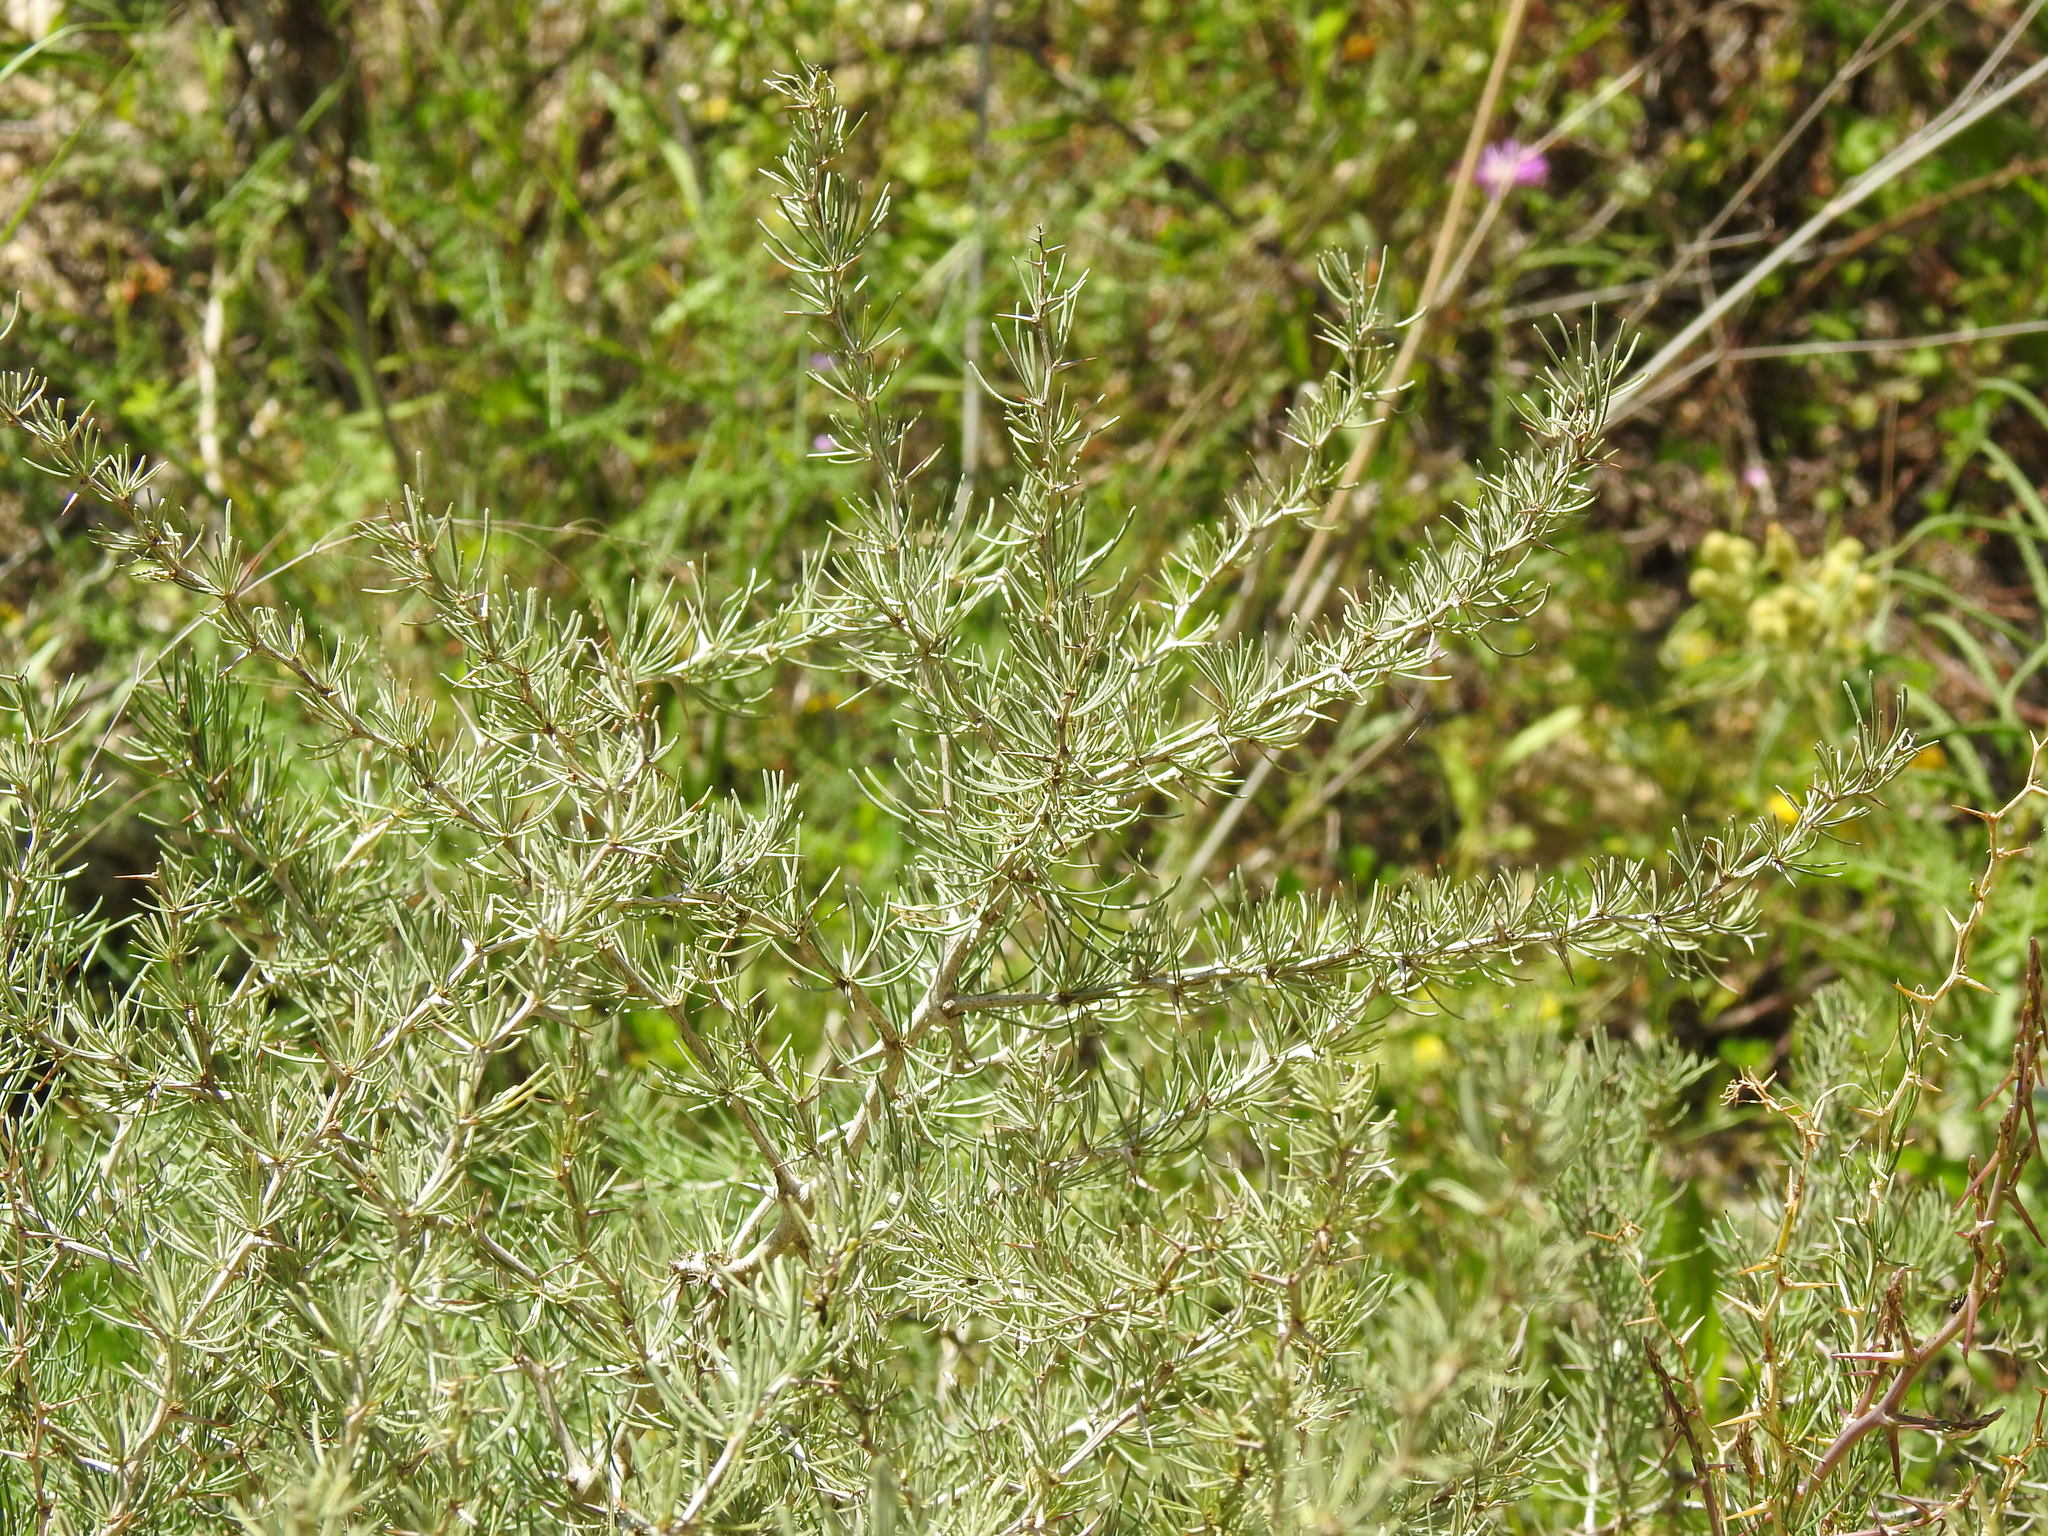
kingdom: Plantae
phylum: Tracheophyta
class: Liliopsida
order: Asparagales
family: Asparagaceae
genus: Asparagus
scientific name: Asparagus albus
